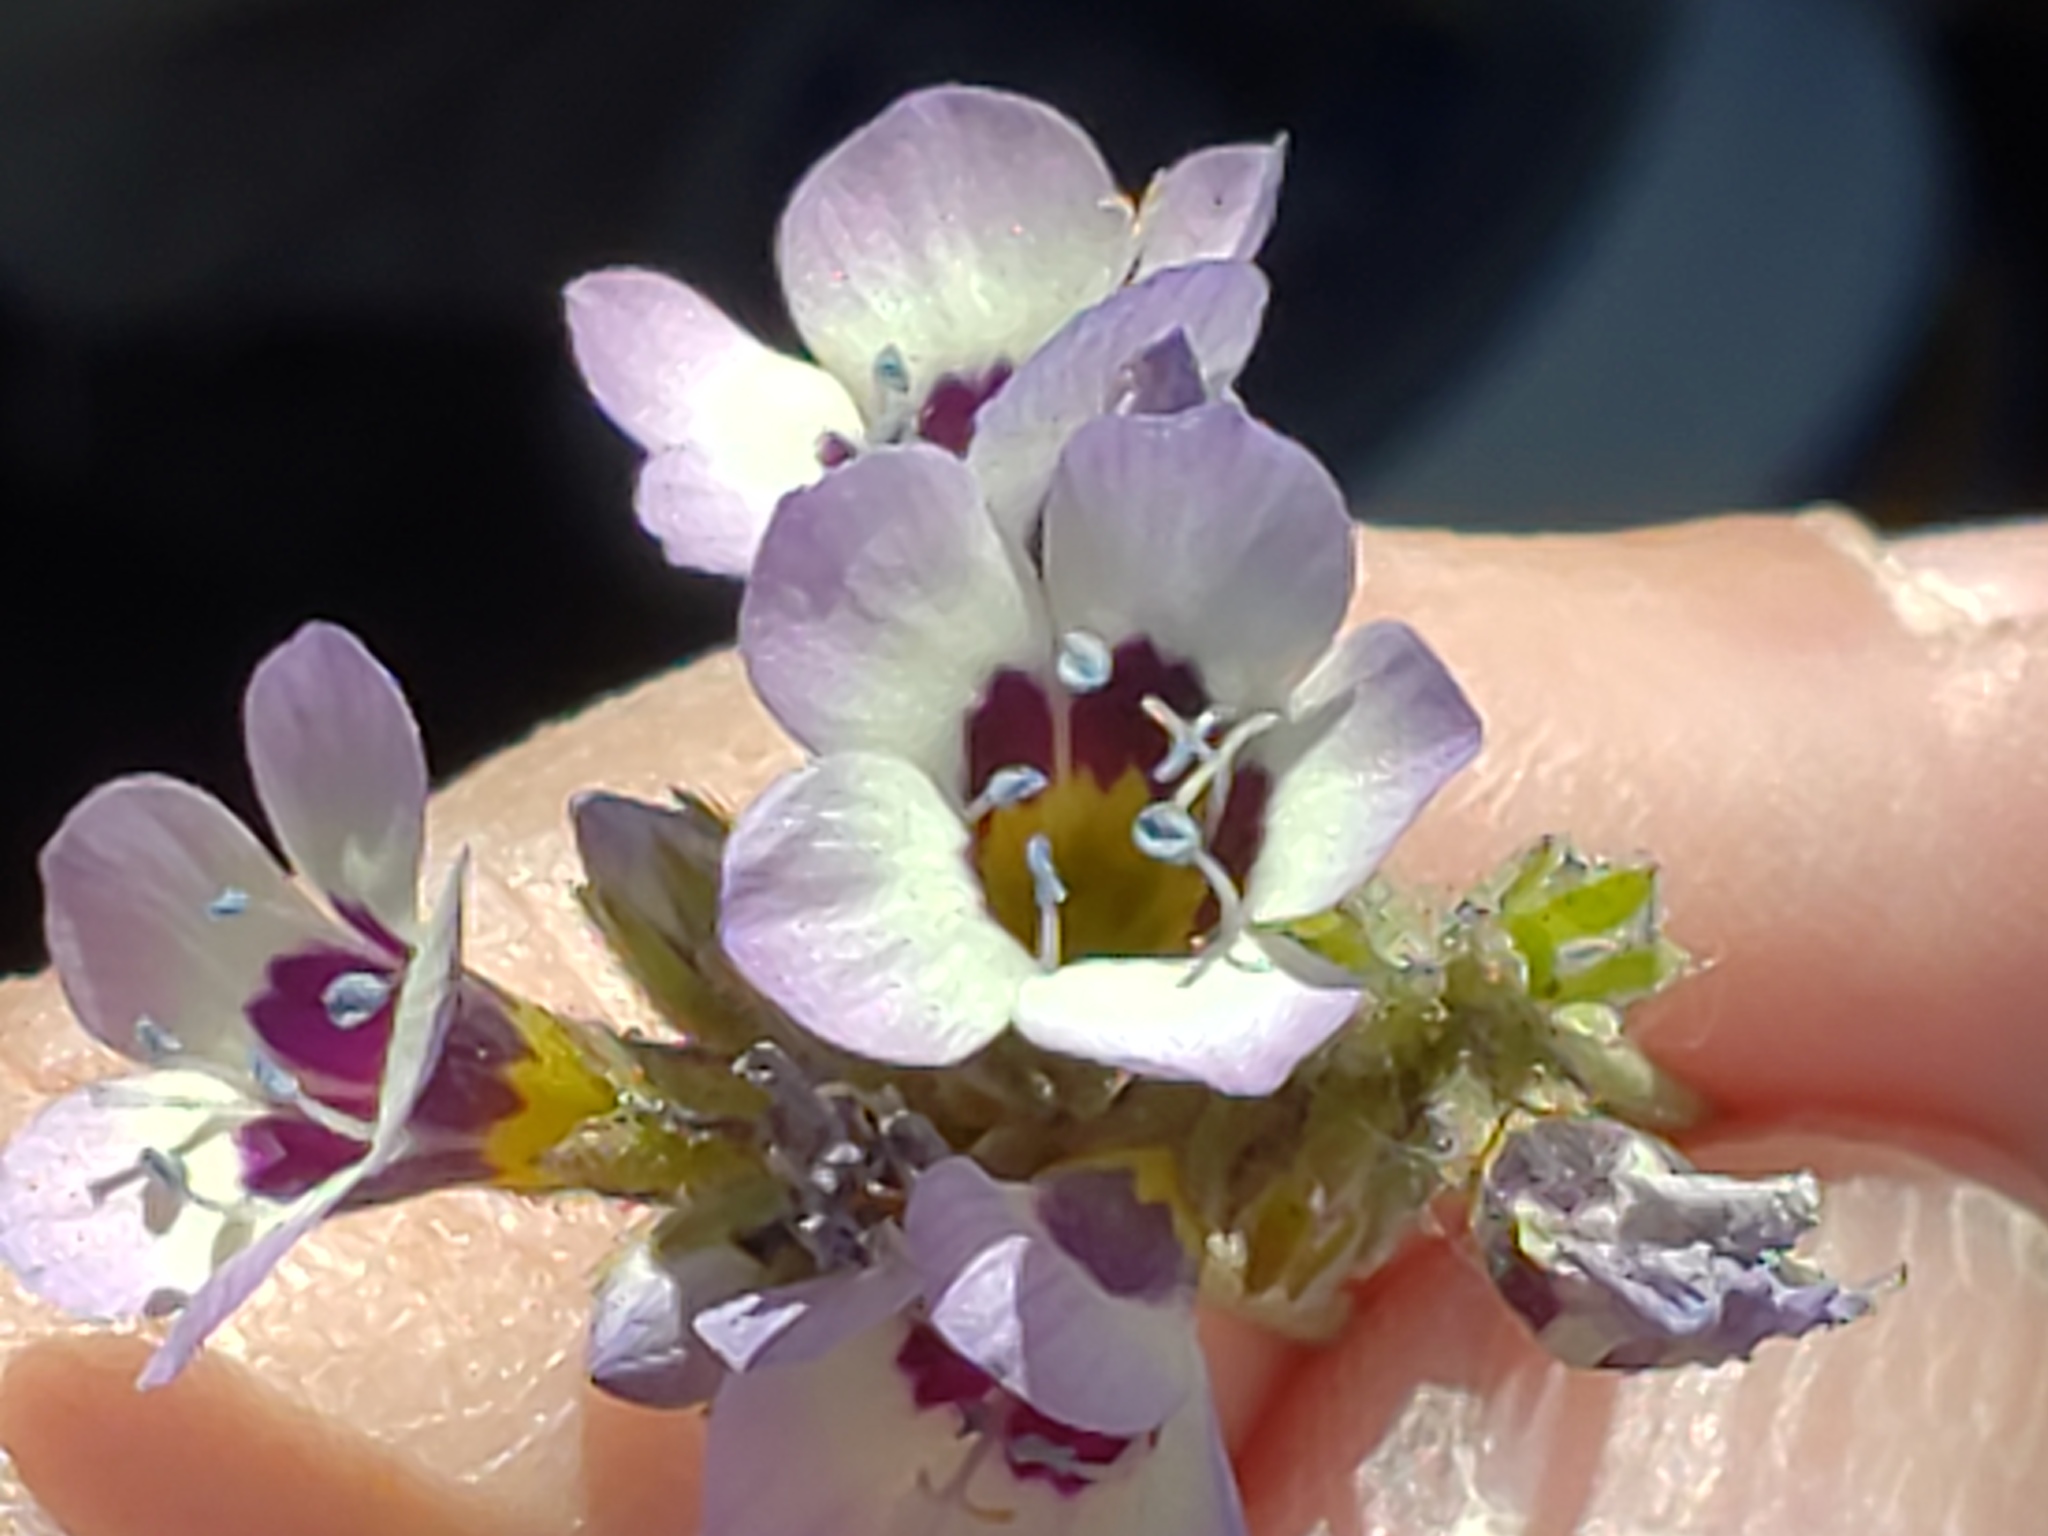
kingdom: Plantae
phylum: Tracheophyta
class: Magnoliopsida
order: Ericales
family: Polemoniaceae
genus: Gilia
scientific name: Gilia tricolor
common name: Bird's-eyes
